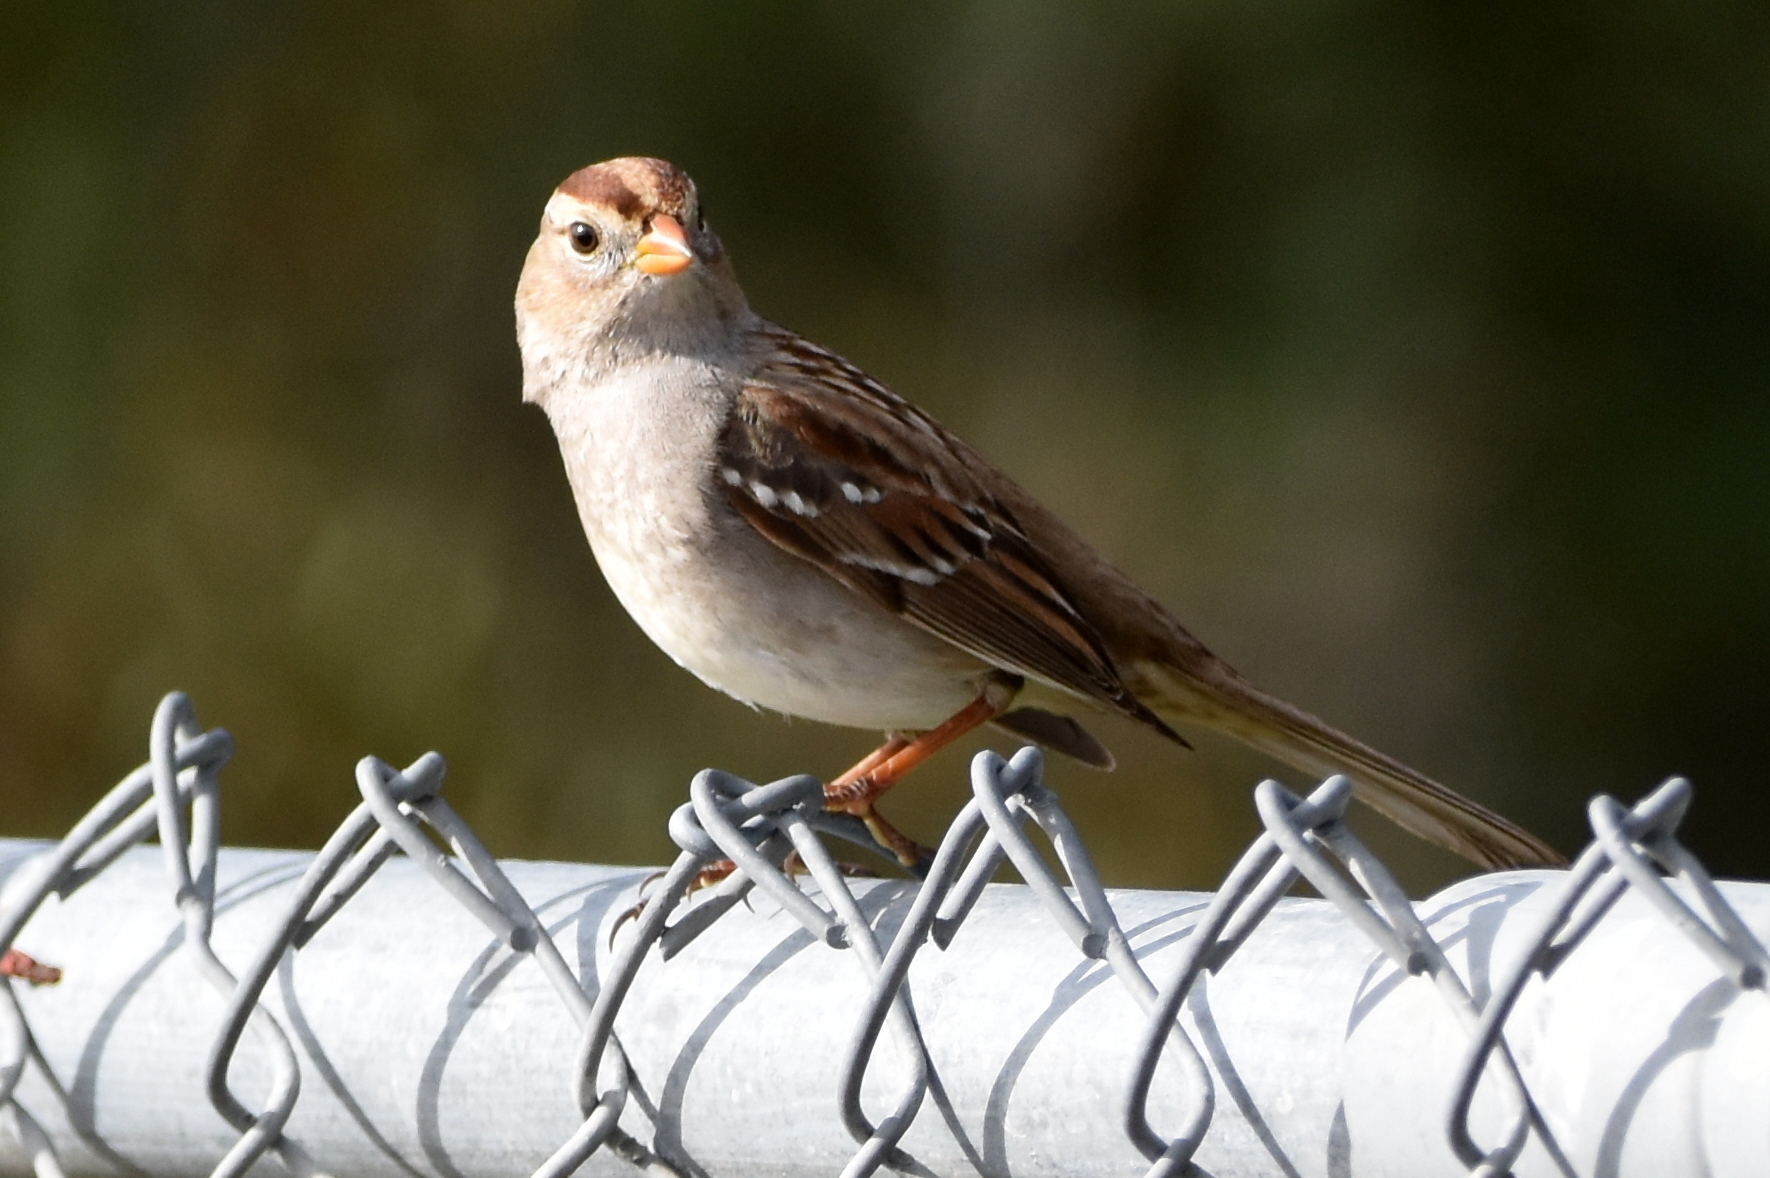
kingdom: Animalia
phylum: Chordata
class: Aves
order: Passeriformes
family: Passerellidae
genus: Zonotrichia
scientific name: Zonotrichia leucophrys
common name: White-crowned sparrow
